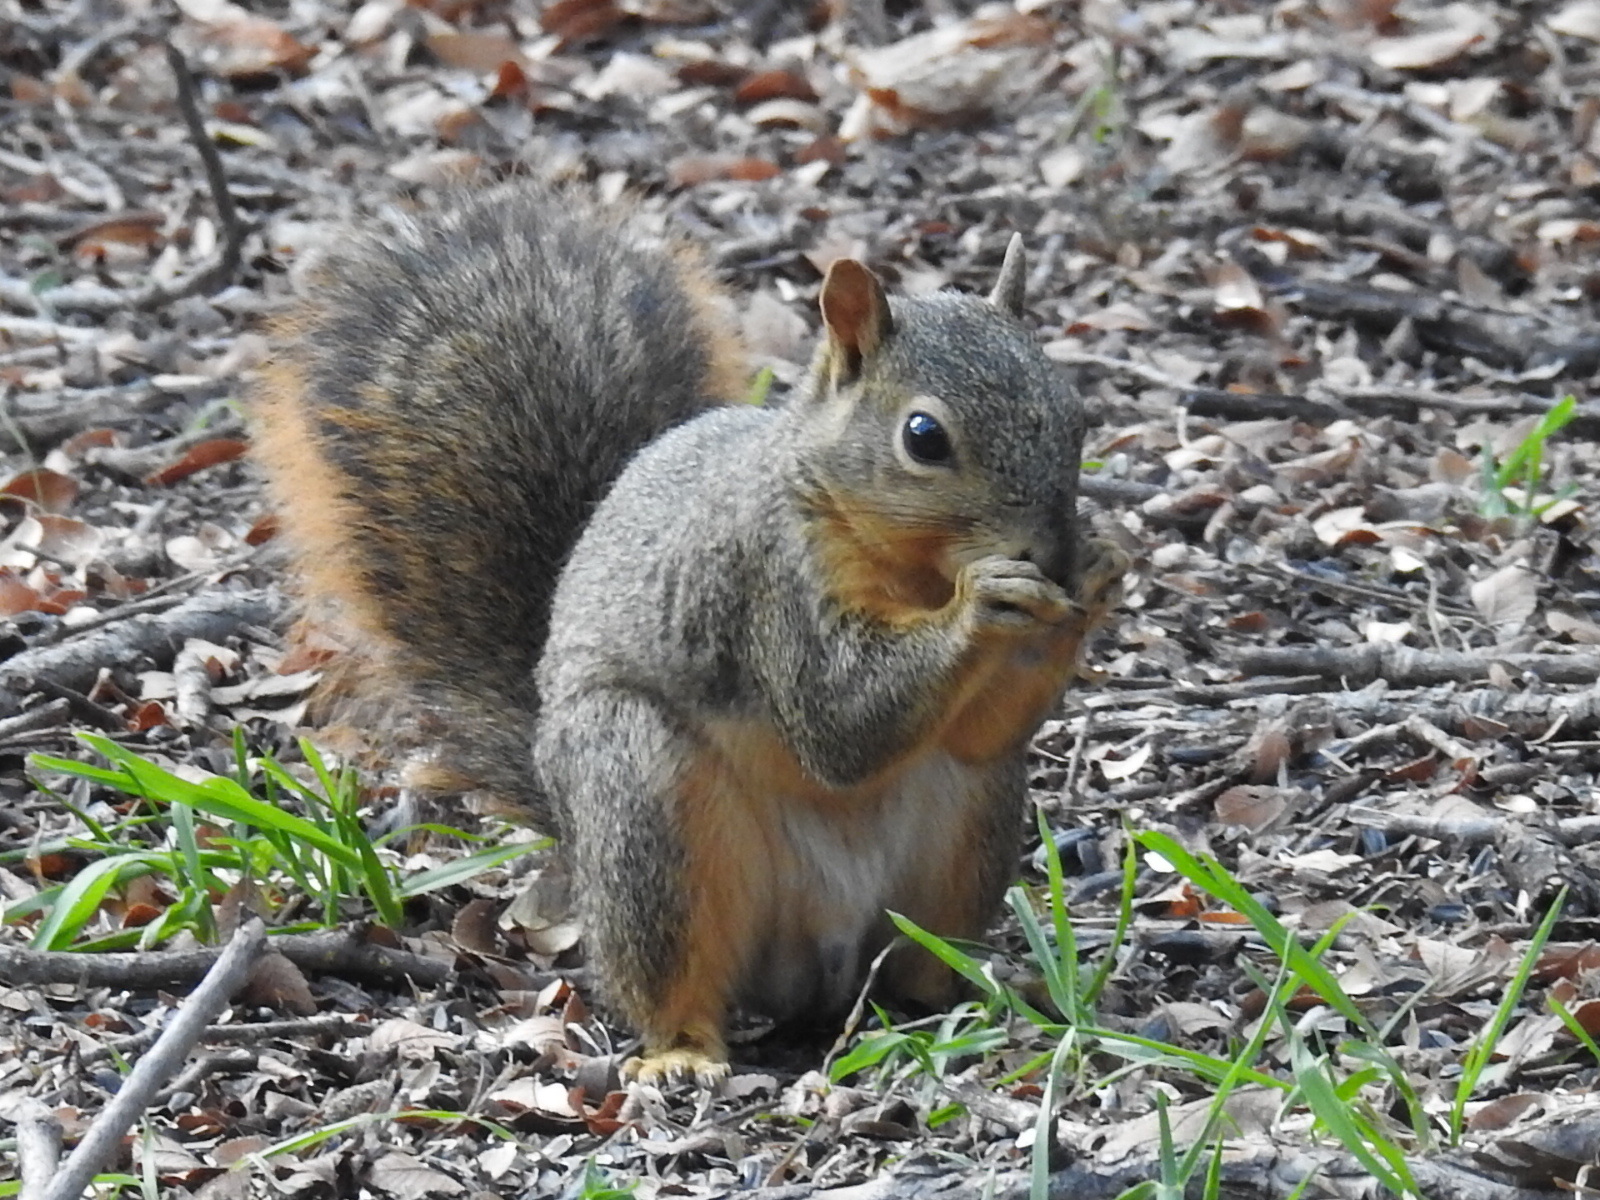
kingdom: Animalia
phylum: Chordata
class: Mammalia
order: Rodentia
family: Sciuridae
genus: Sciurus
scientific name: Sciurus niger
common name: Fox squirrel
